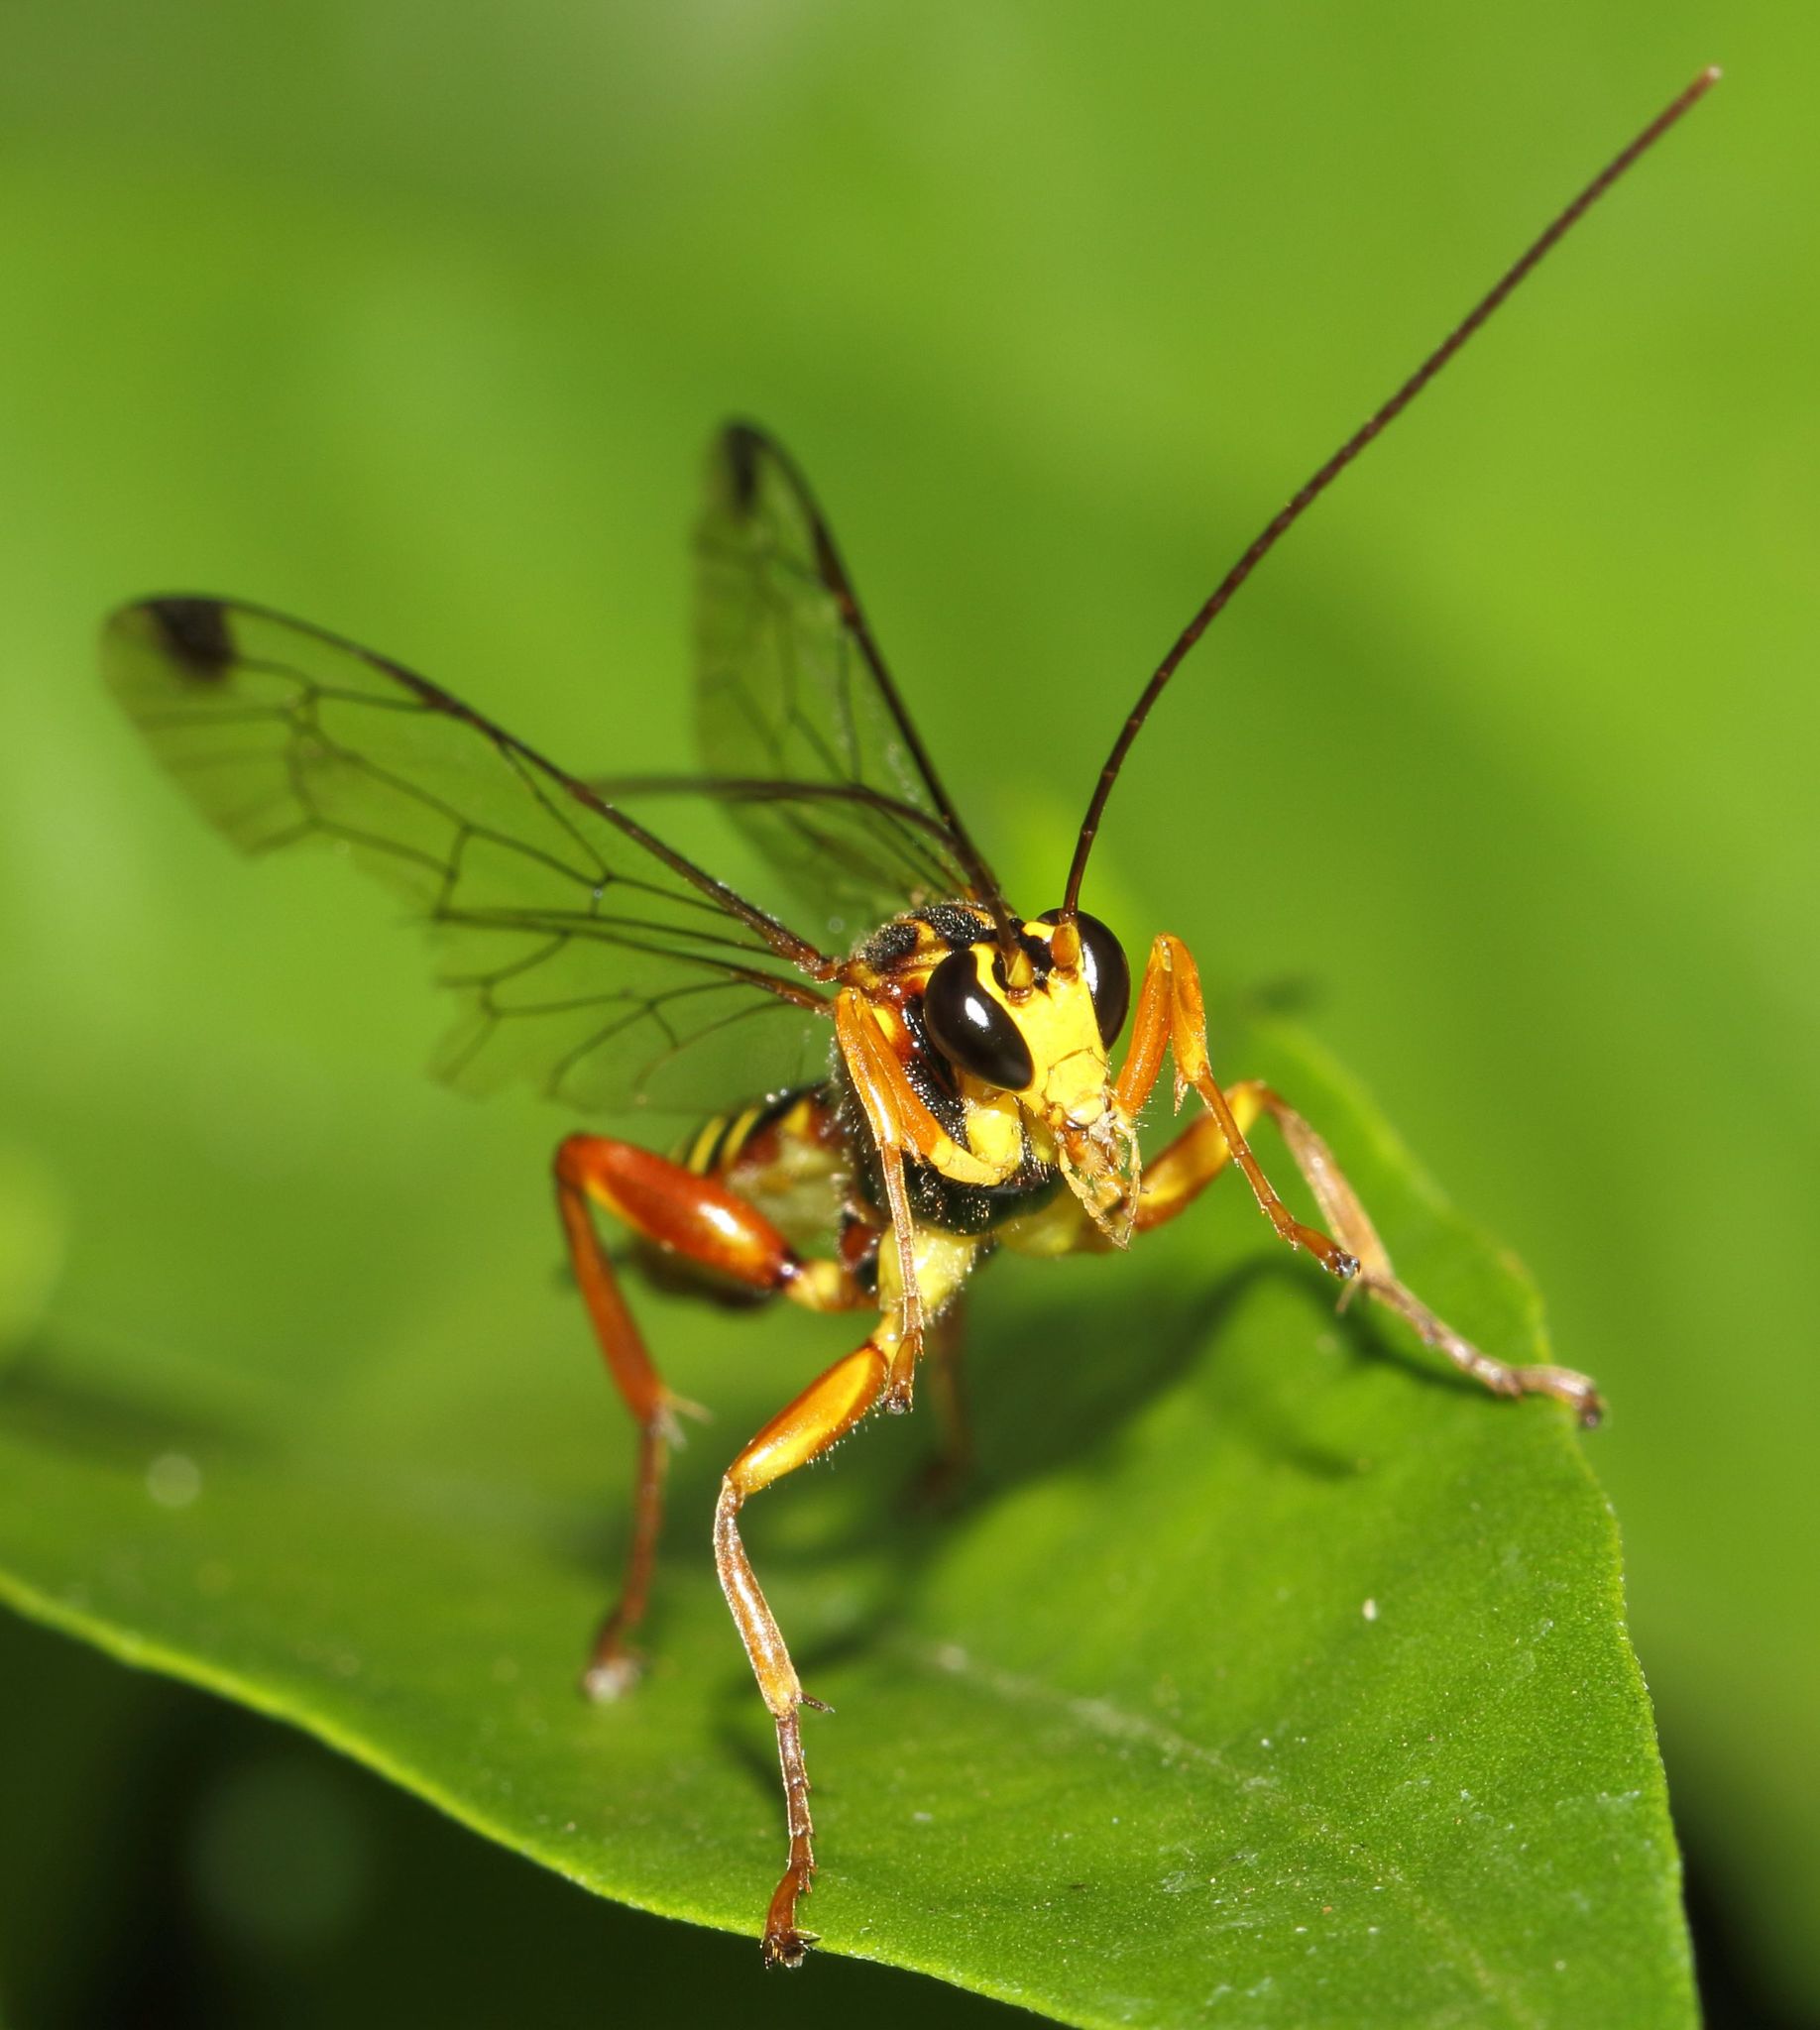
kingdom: Animalia
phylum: Arthropoda
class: Insecta
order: Hymenoptera
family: Ichneumonidae
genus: Echthromorpha
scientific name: Echthromorpha agrestoria
